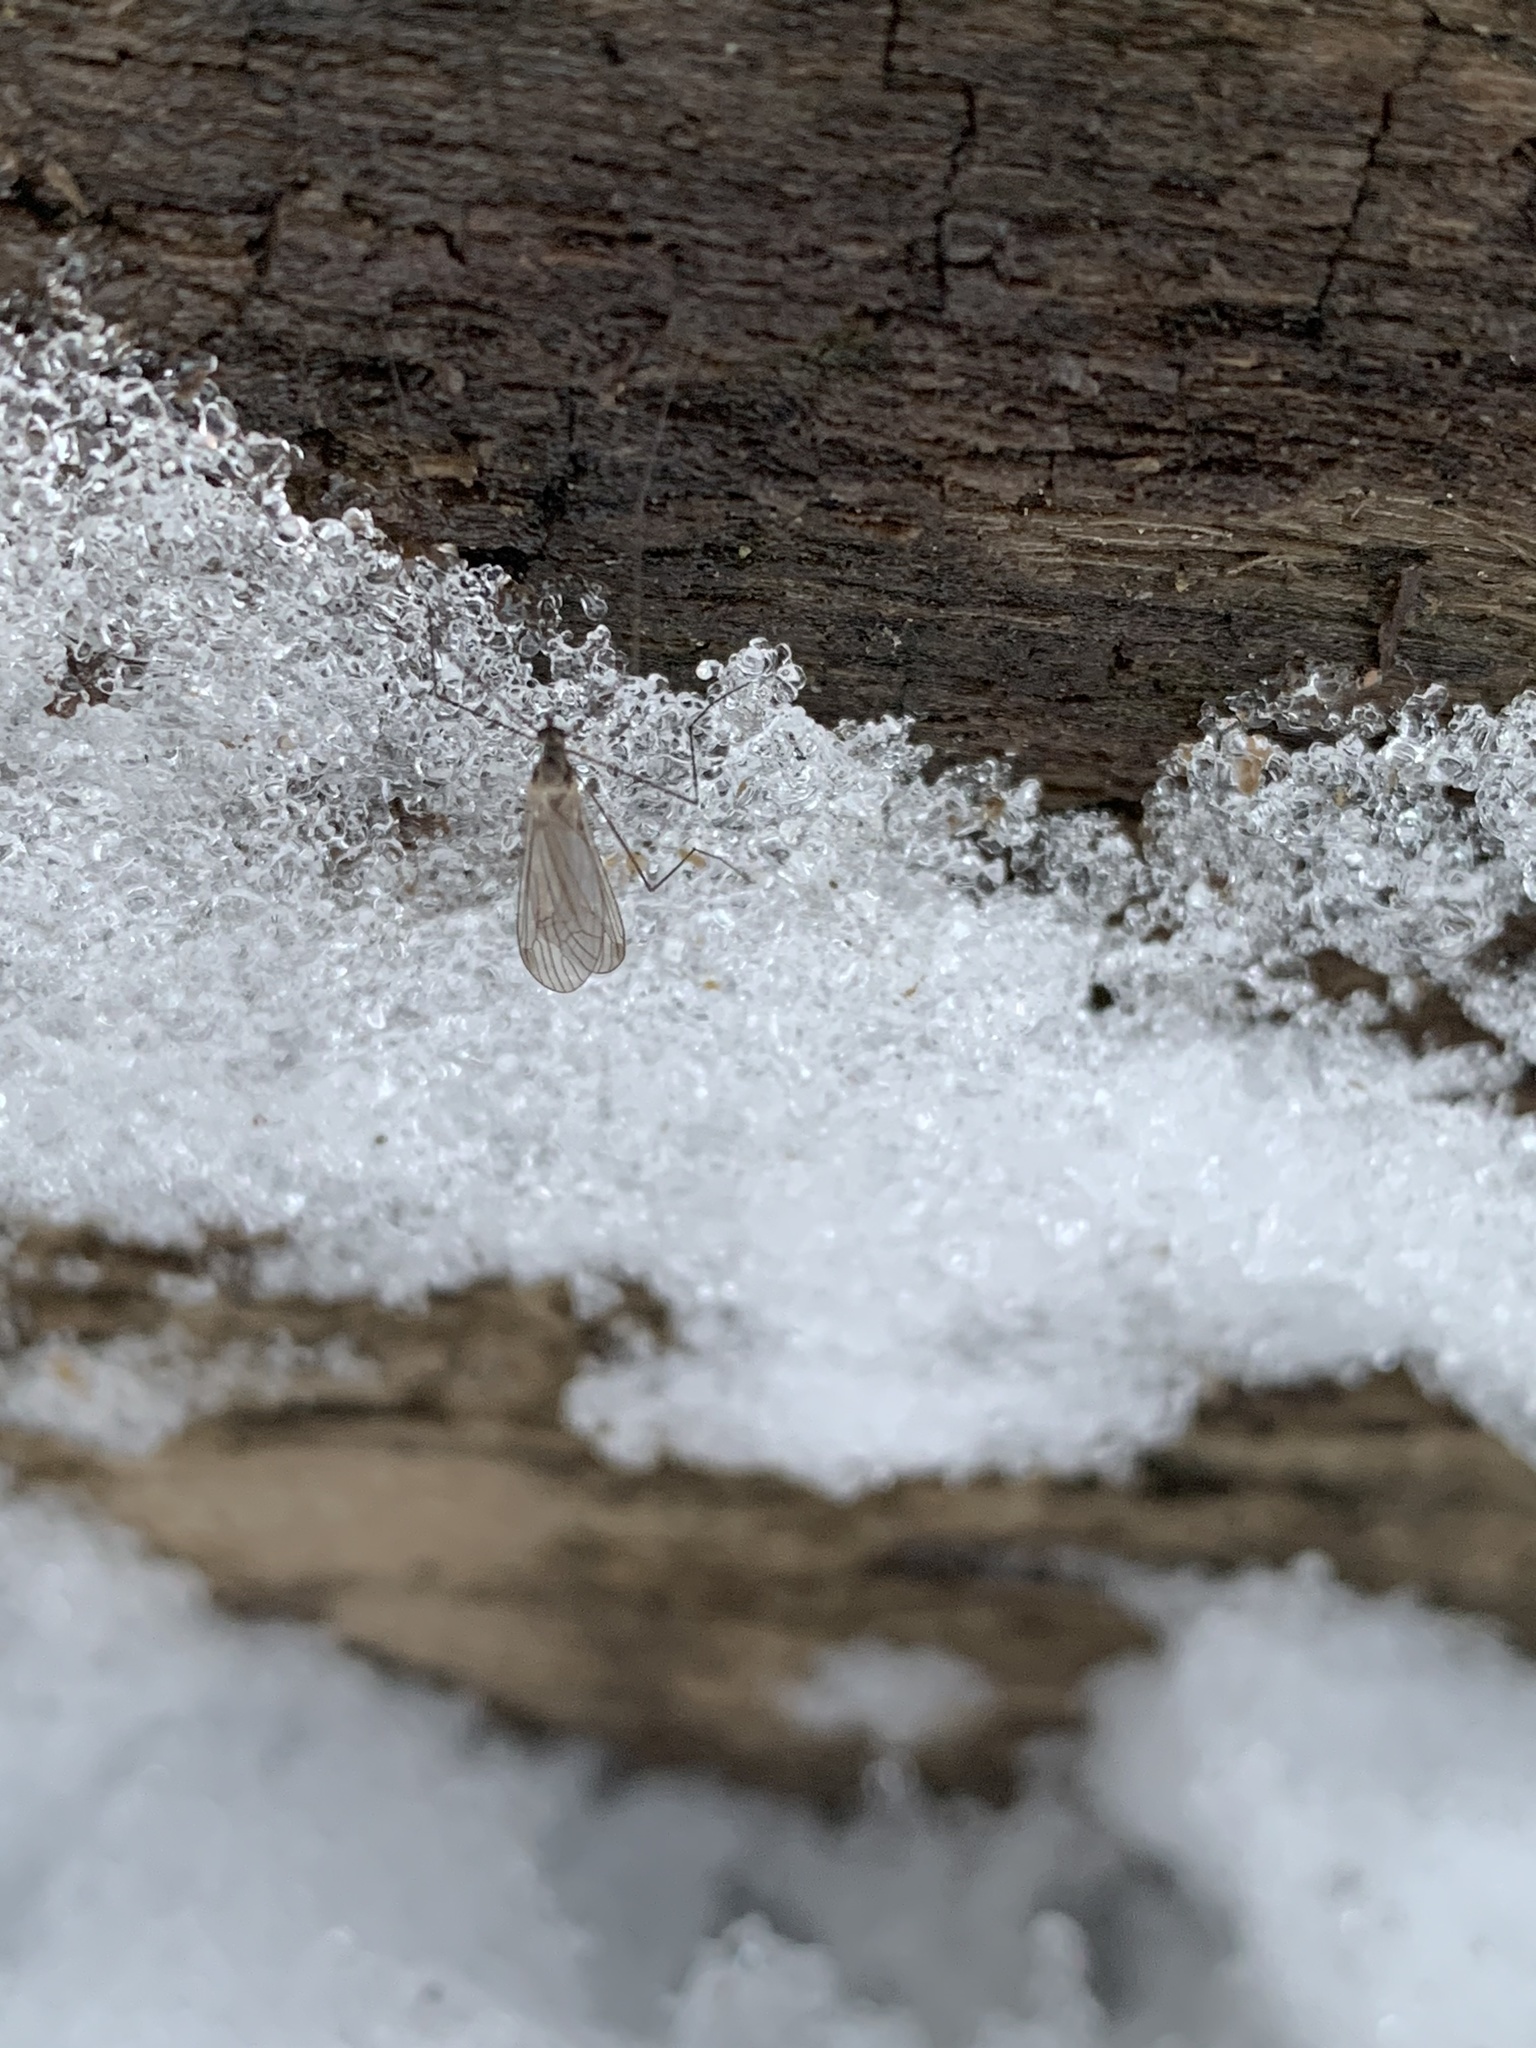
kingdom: Animalia
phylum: Arthropoda
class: Insecta
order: Diptera
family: Trichoceridae
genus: Trichocera
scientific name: Trichocera
